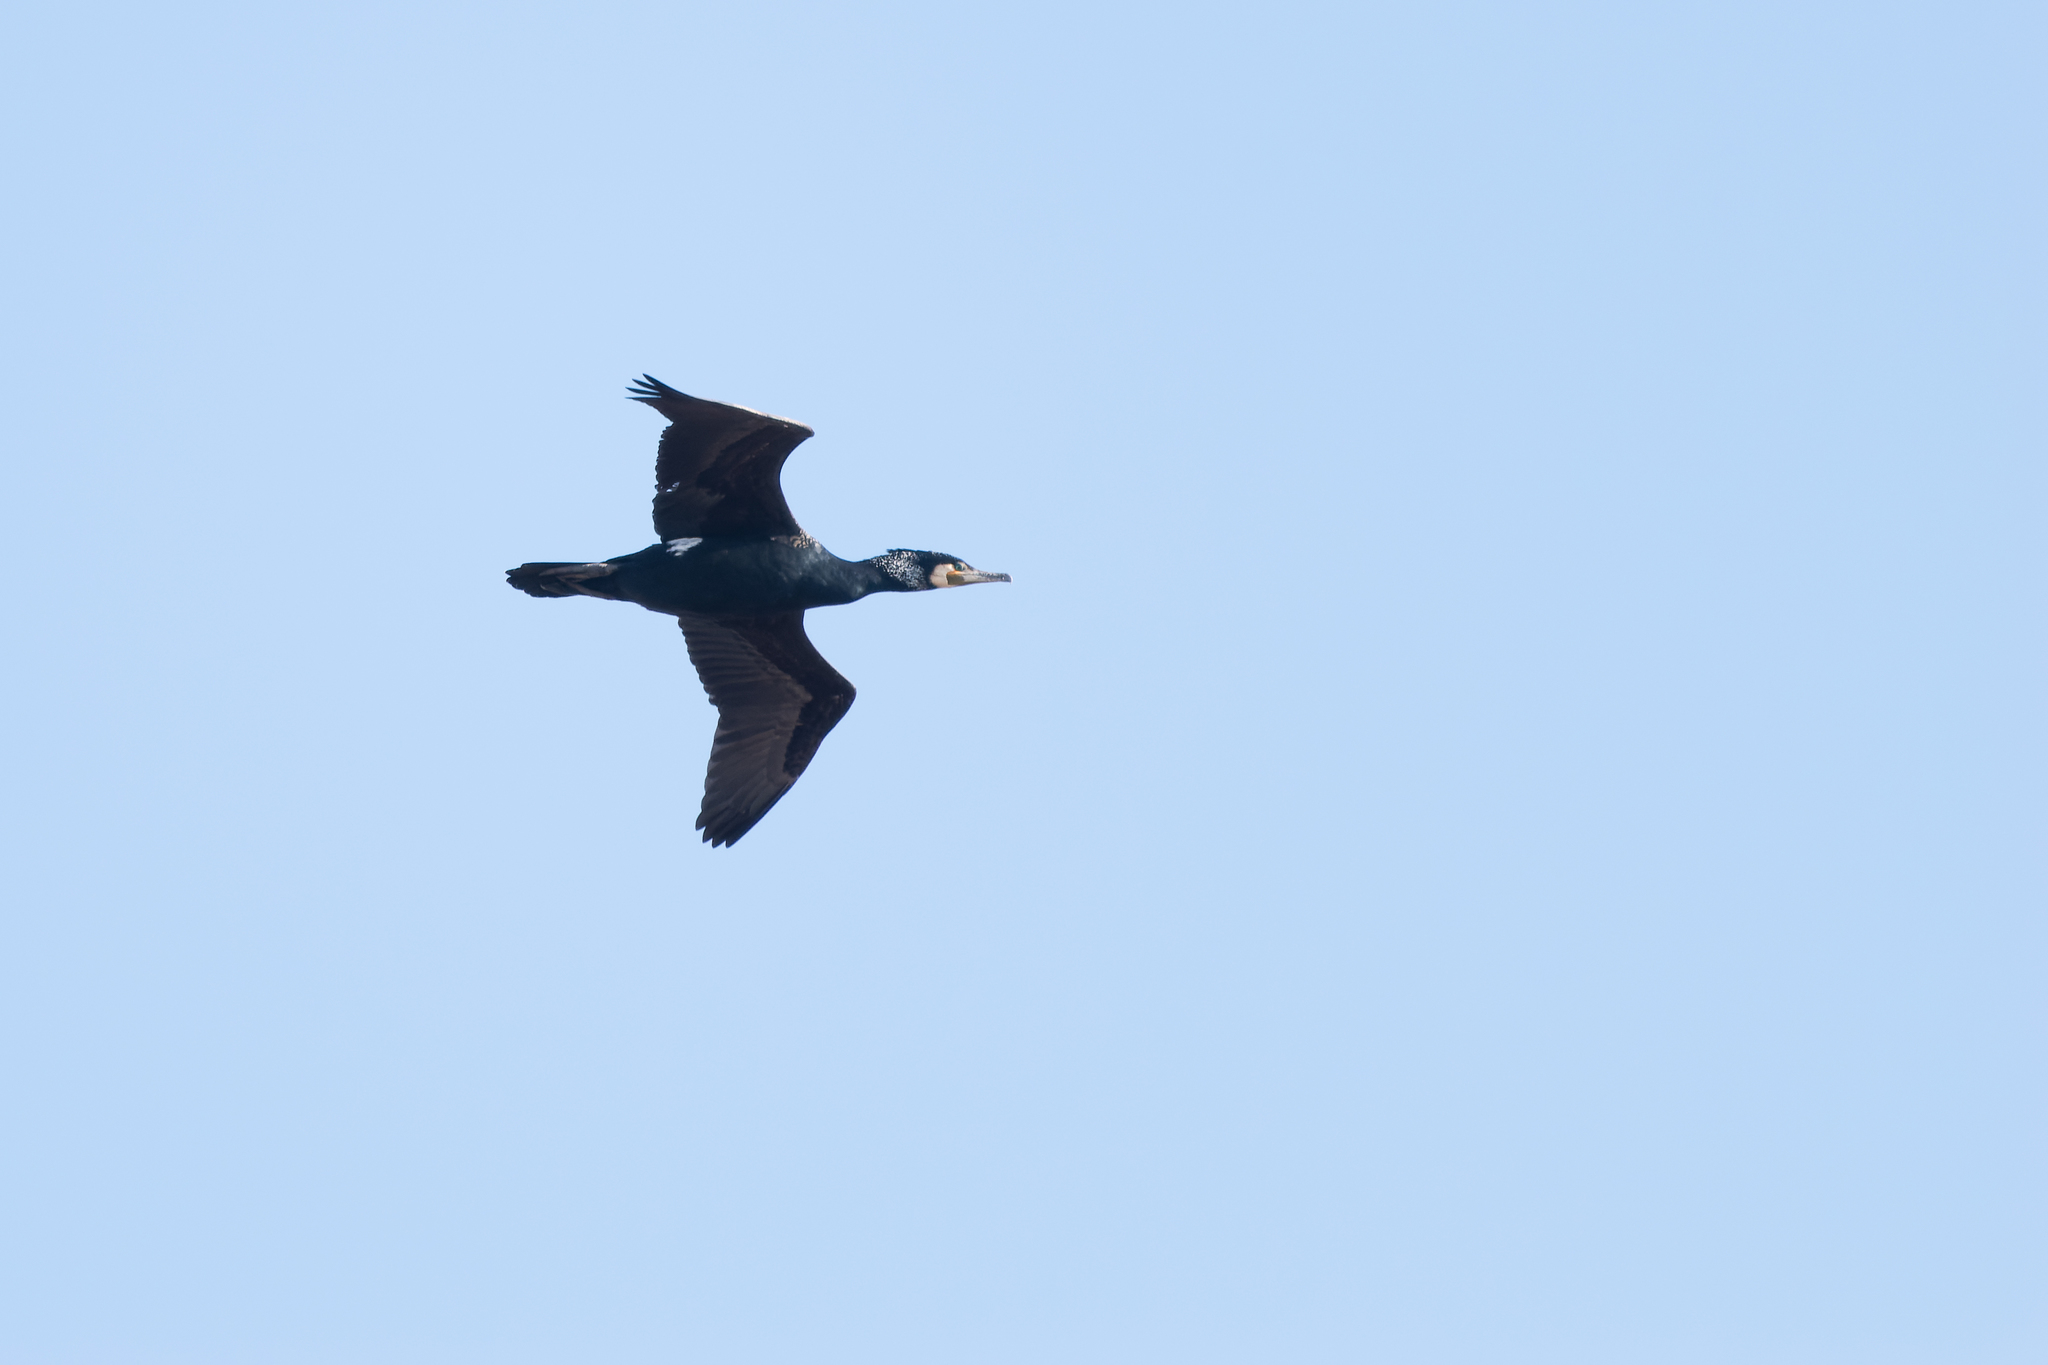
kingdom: Animalia
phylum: Chordata
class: Aves
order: Suliformes
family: Phalacrocoracidae
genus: Phalacrocorax
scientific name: Phalacrocorax carbo
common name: Great cormorant
